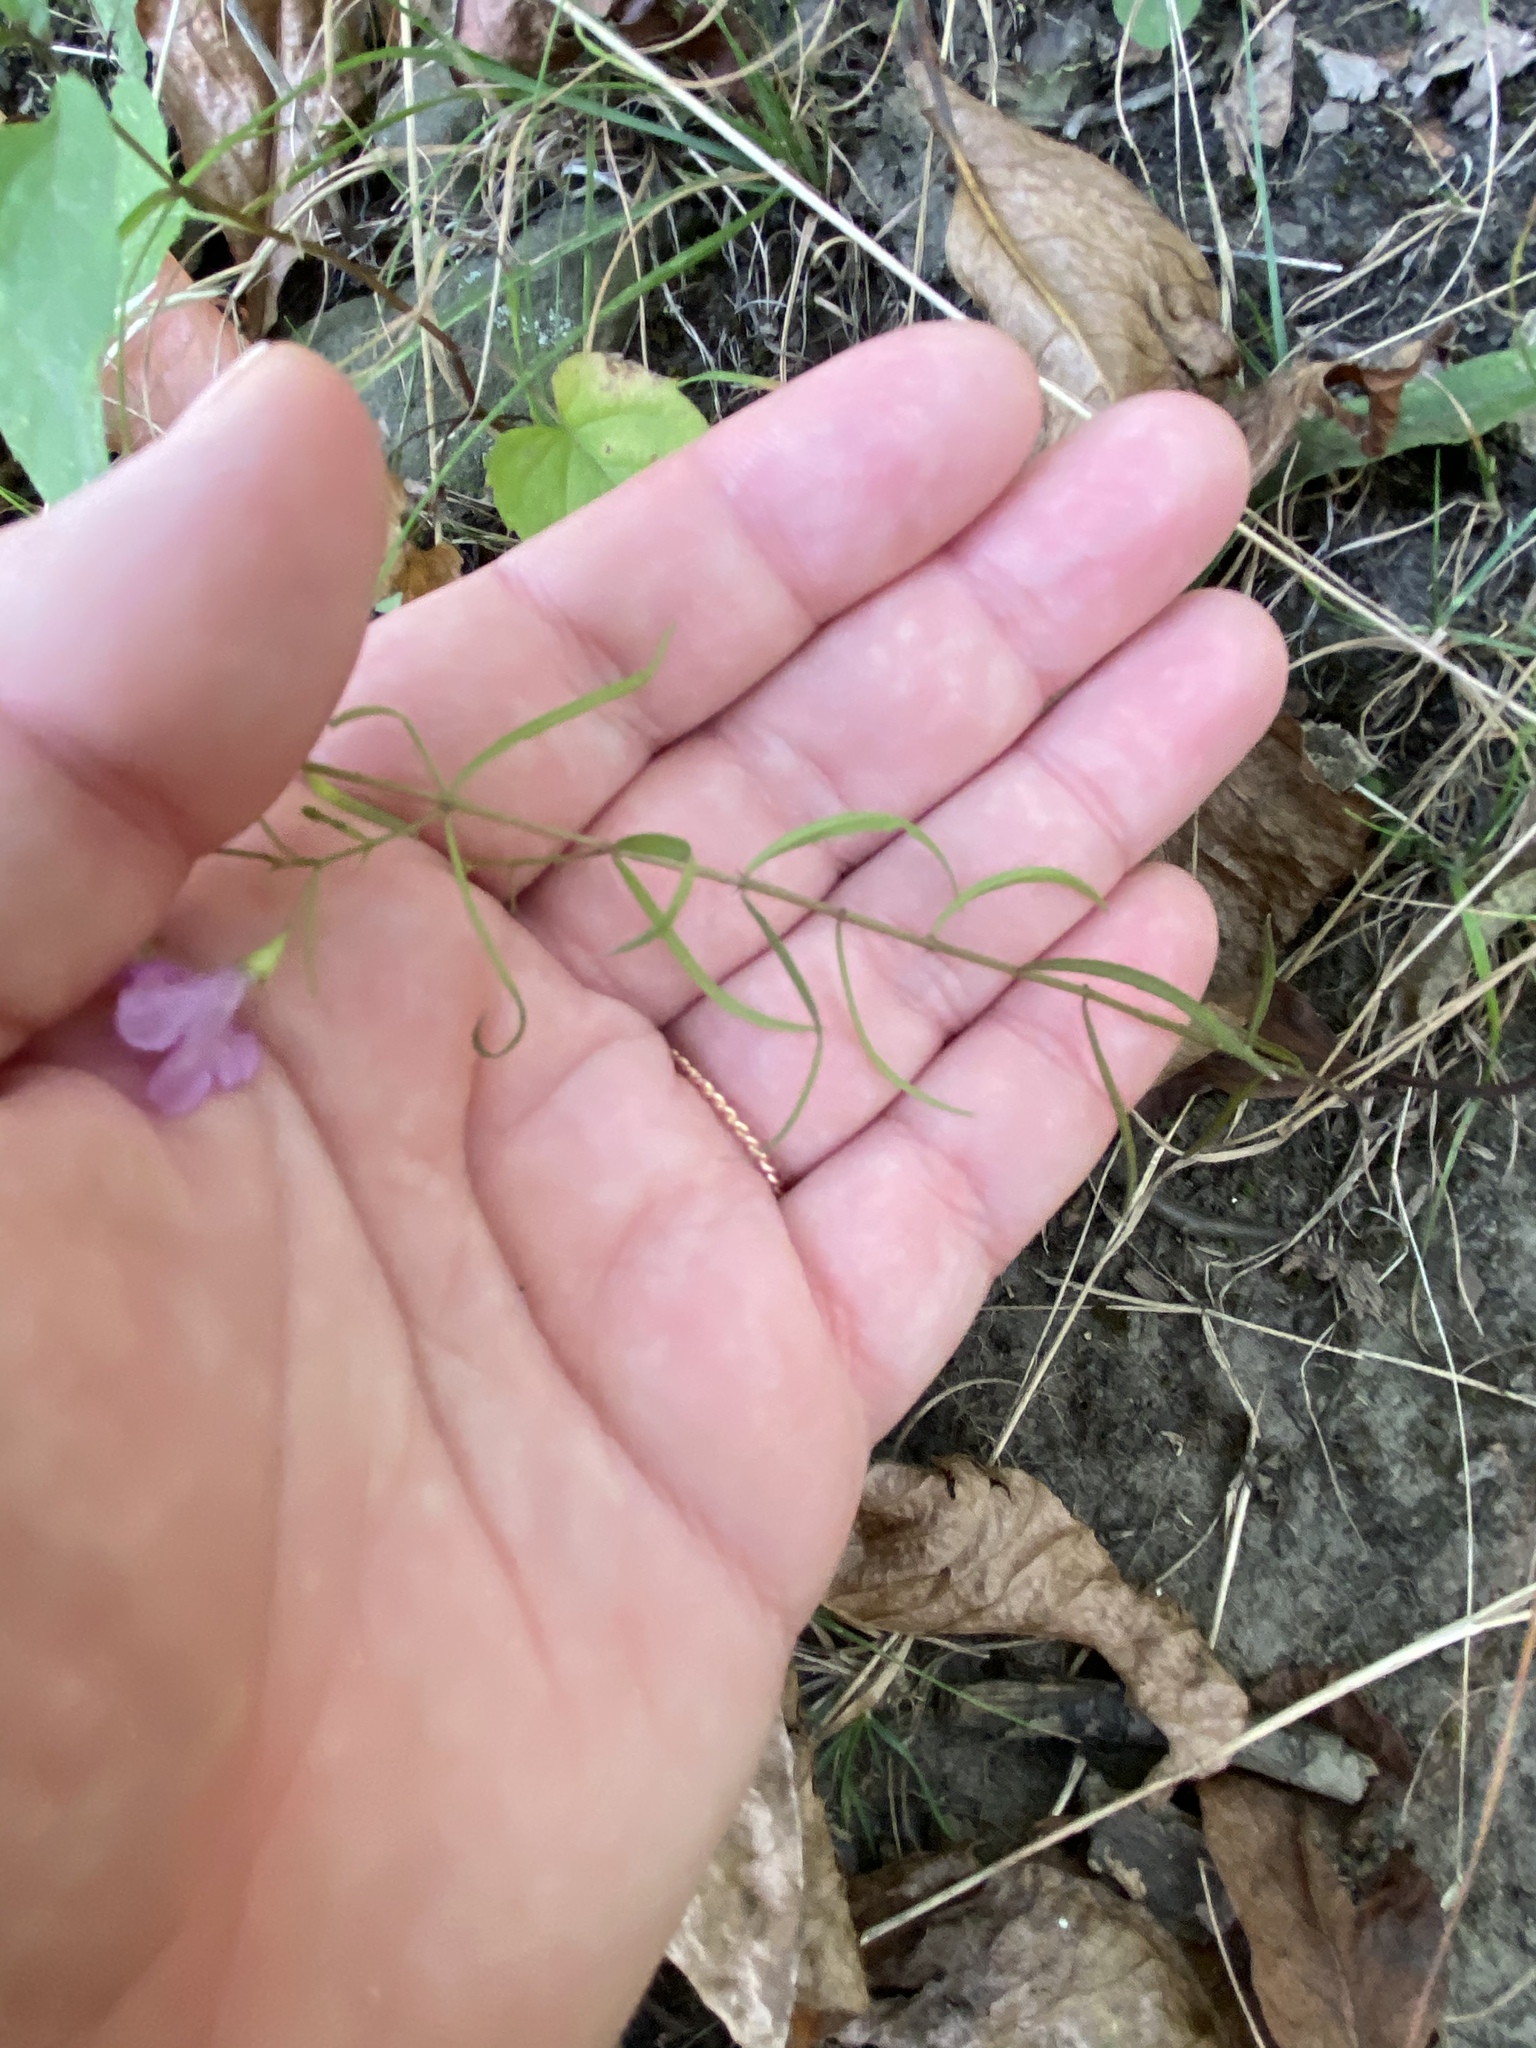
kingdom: Plantae
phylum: Tracheophyta
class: Magnoliopsida
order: Lamiales
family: Orobanchaceae
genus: Agalinis
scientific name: Agalinis tenuifolia
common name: Slender agalinis
